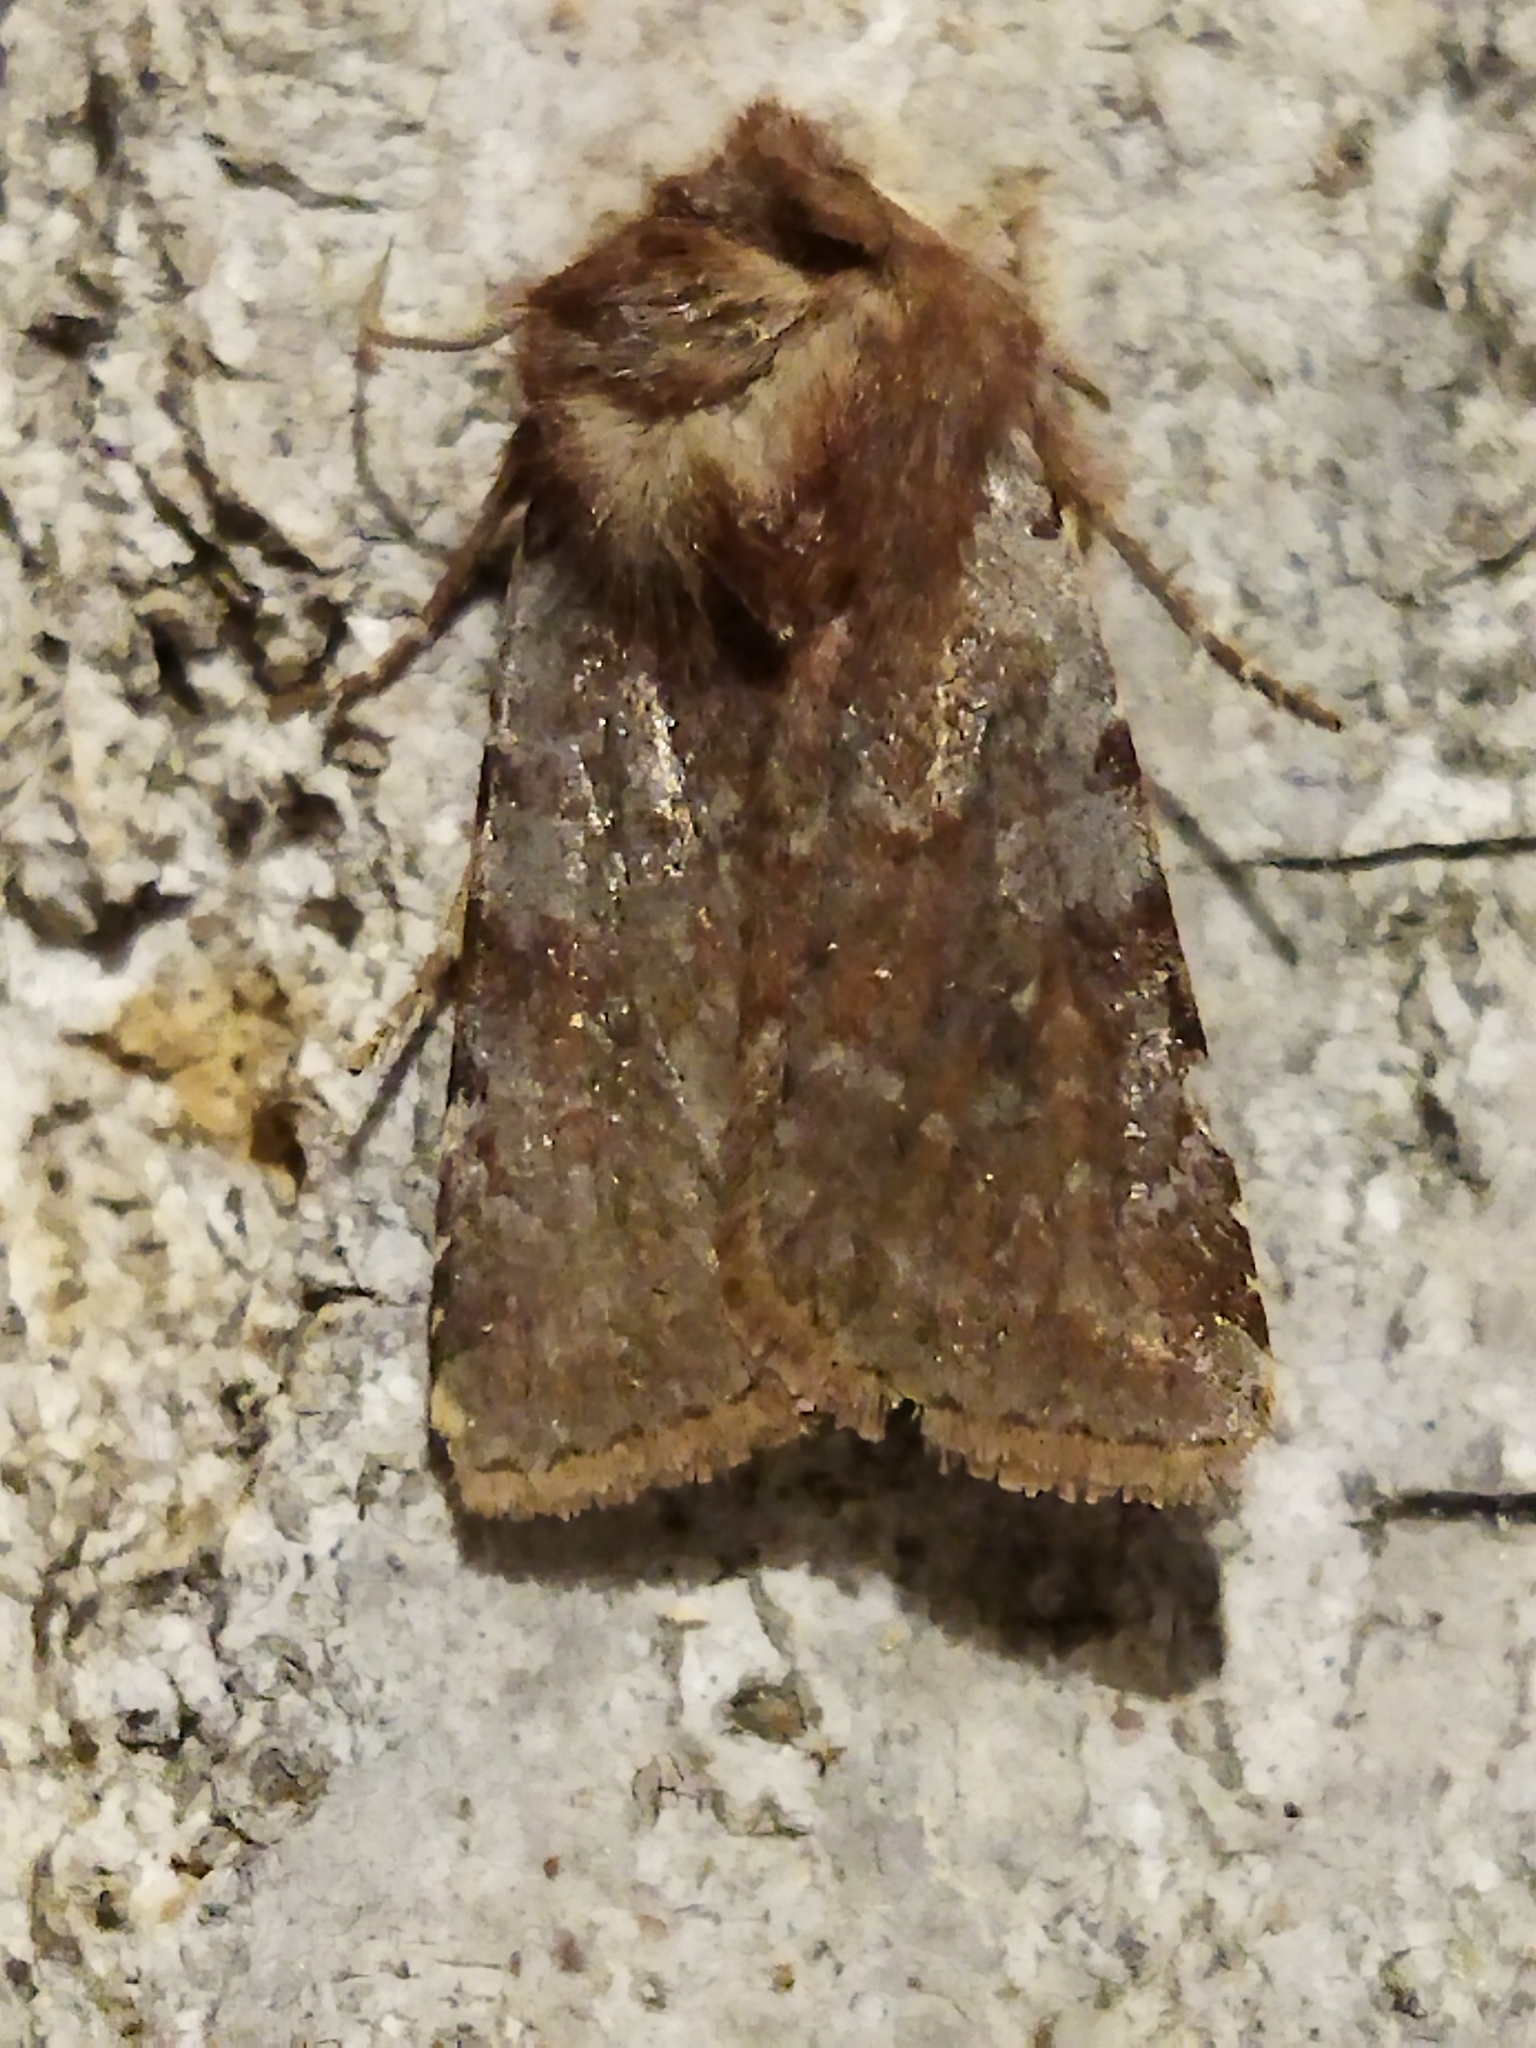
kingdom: Animalia
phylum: Arthropoda
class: Insecta
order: Lepidoptera
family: Noctuidae
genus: Cerastis
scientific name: Cerastis rubricosa
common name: Red chestnut
